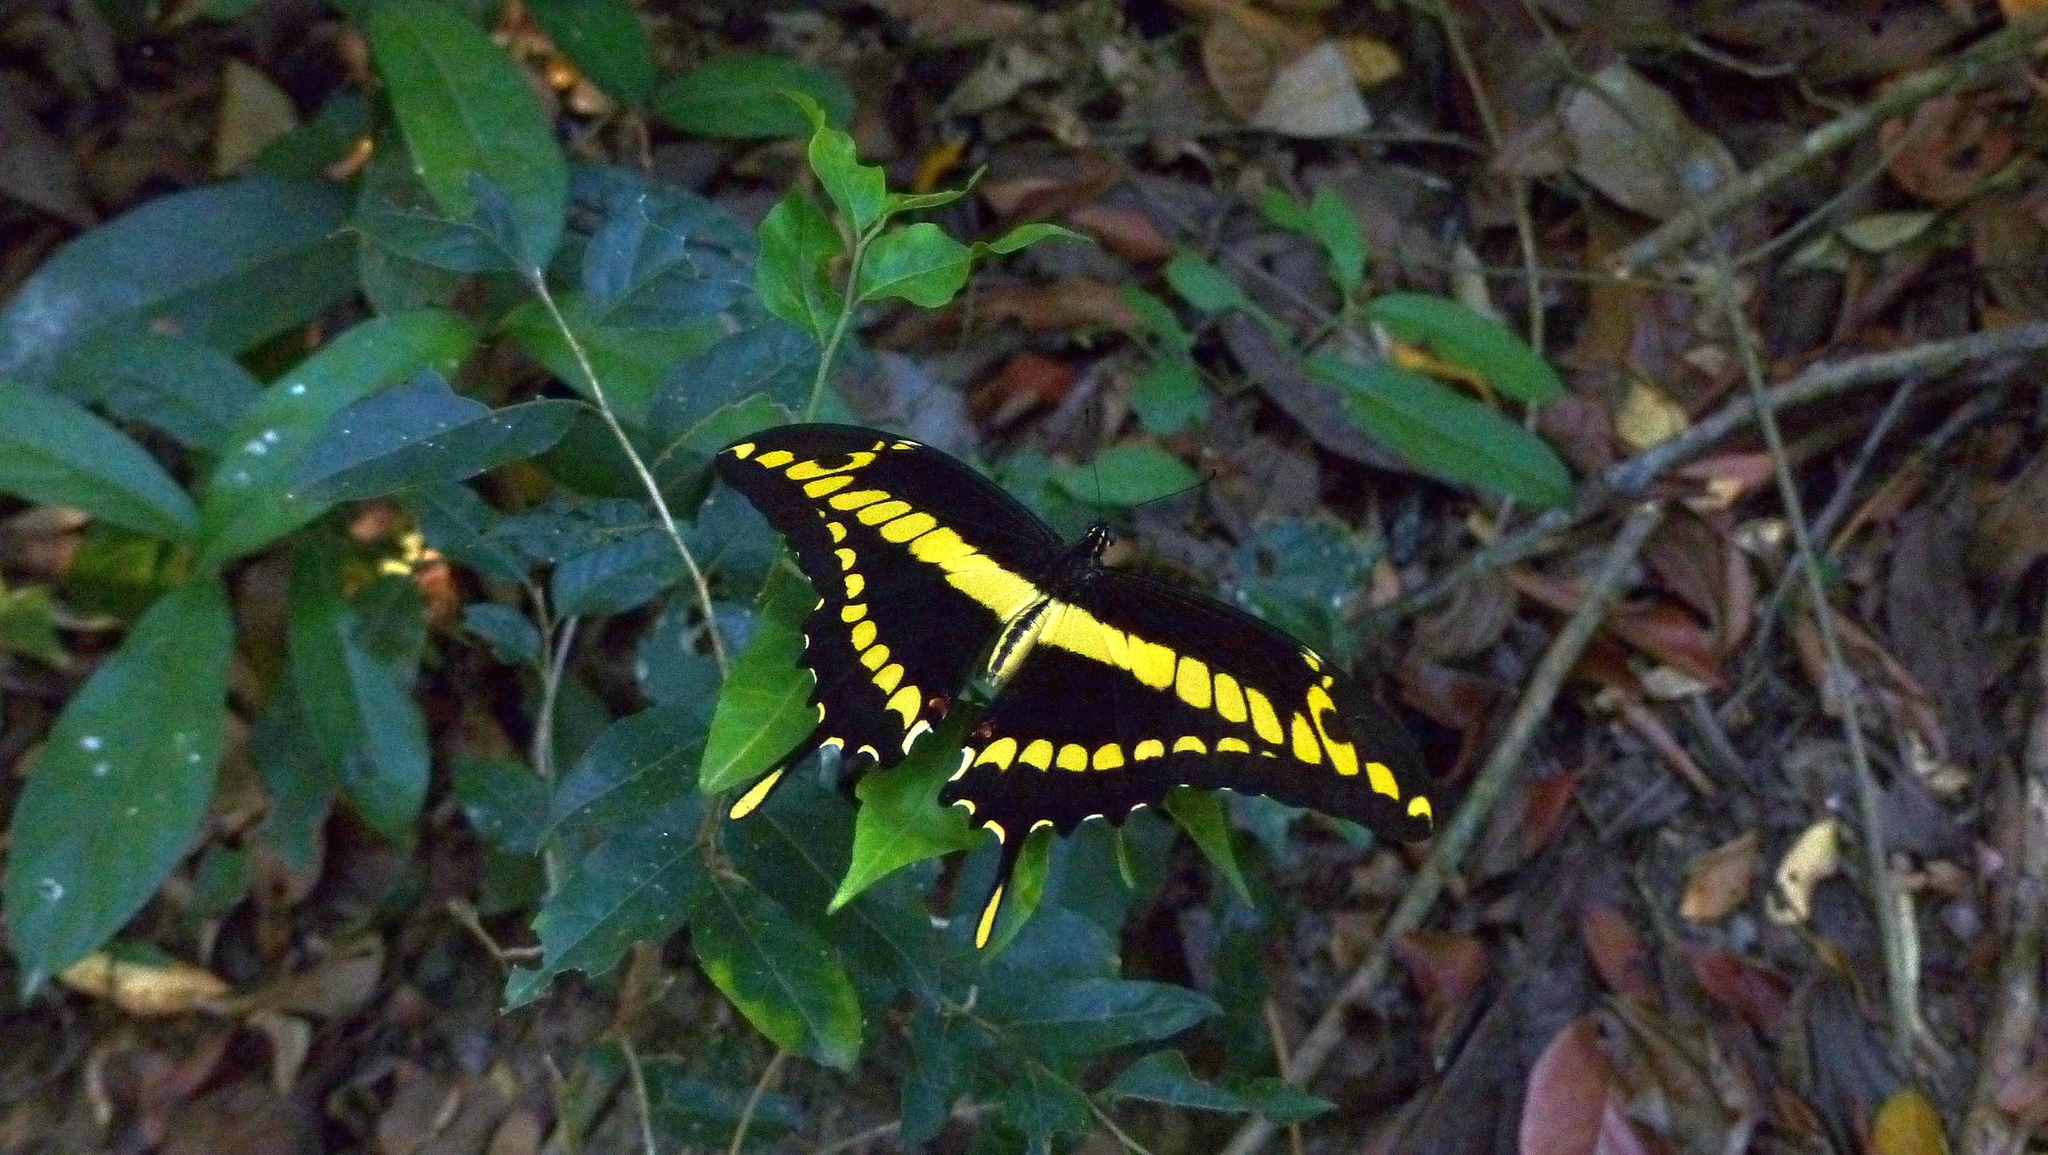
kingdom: Animalia
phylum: Arthropoda
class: Insecta
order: Lepidoptera
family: Papilionidae
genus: Papilio
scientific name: Papilio thoas
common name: King swallowtail
